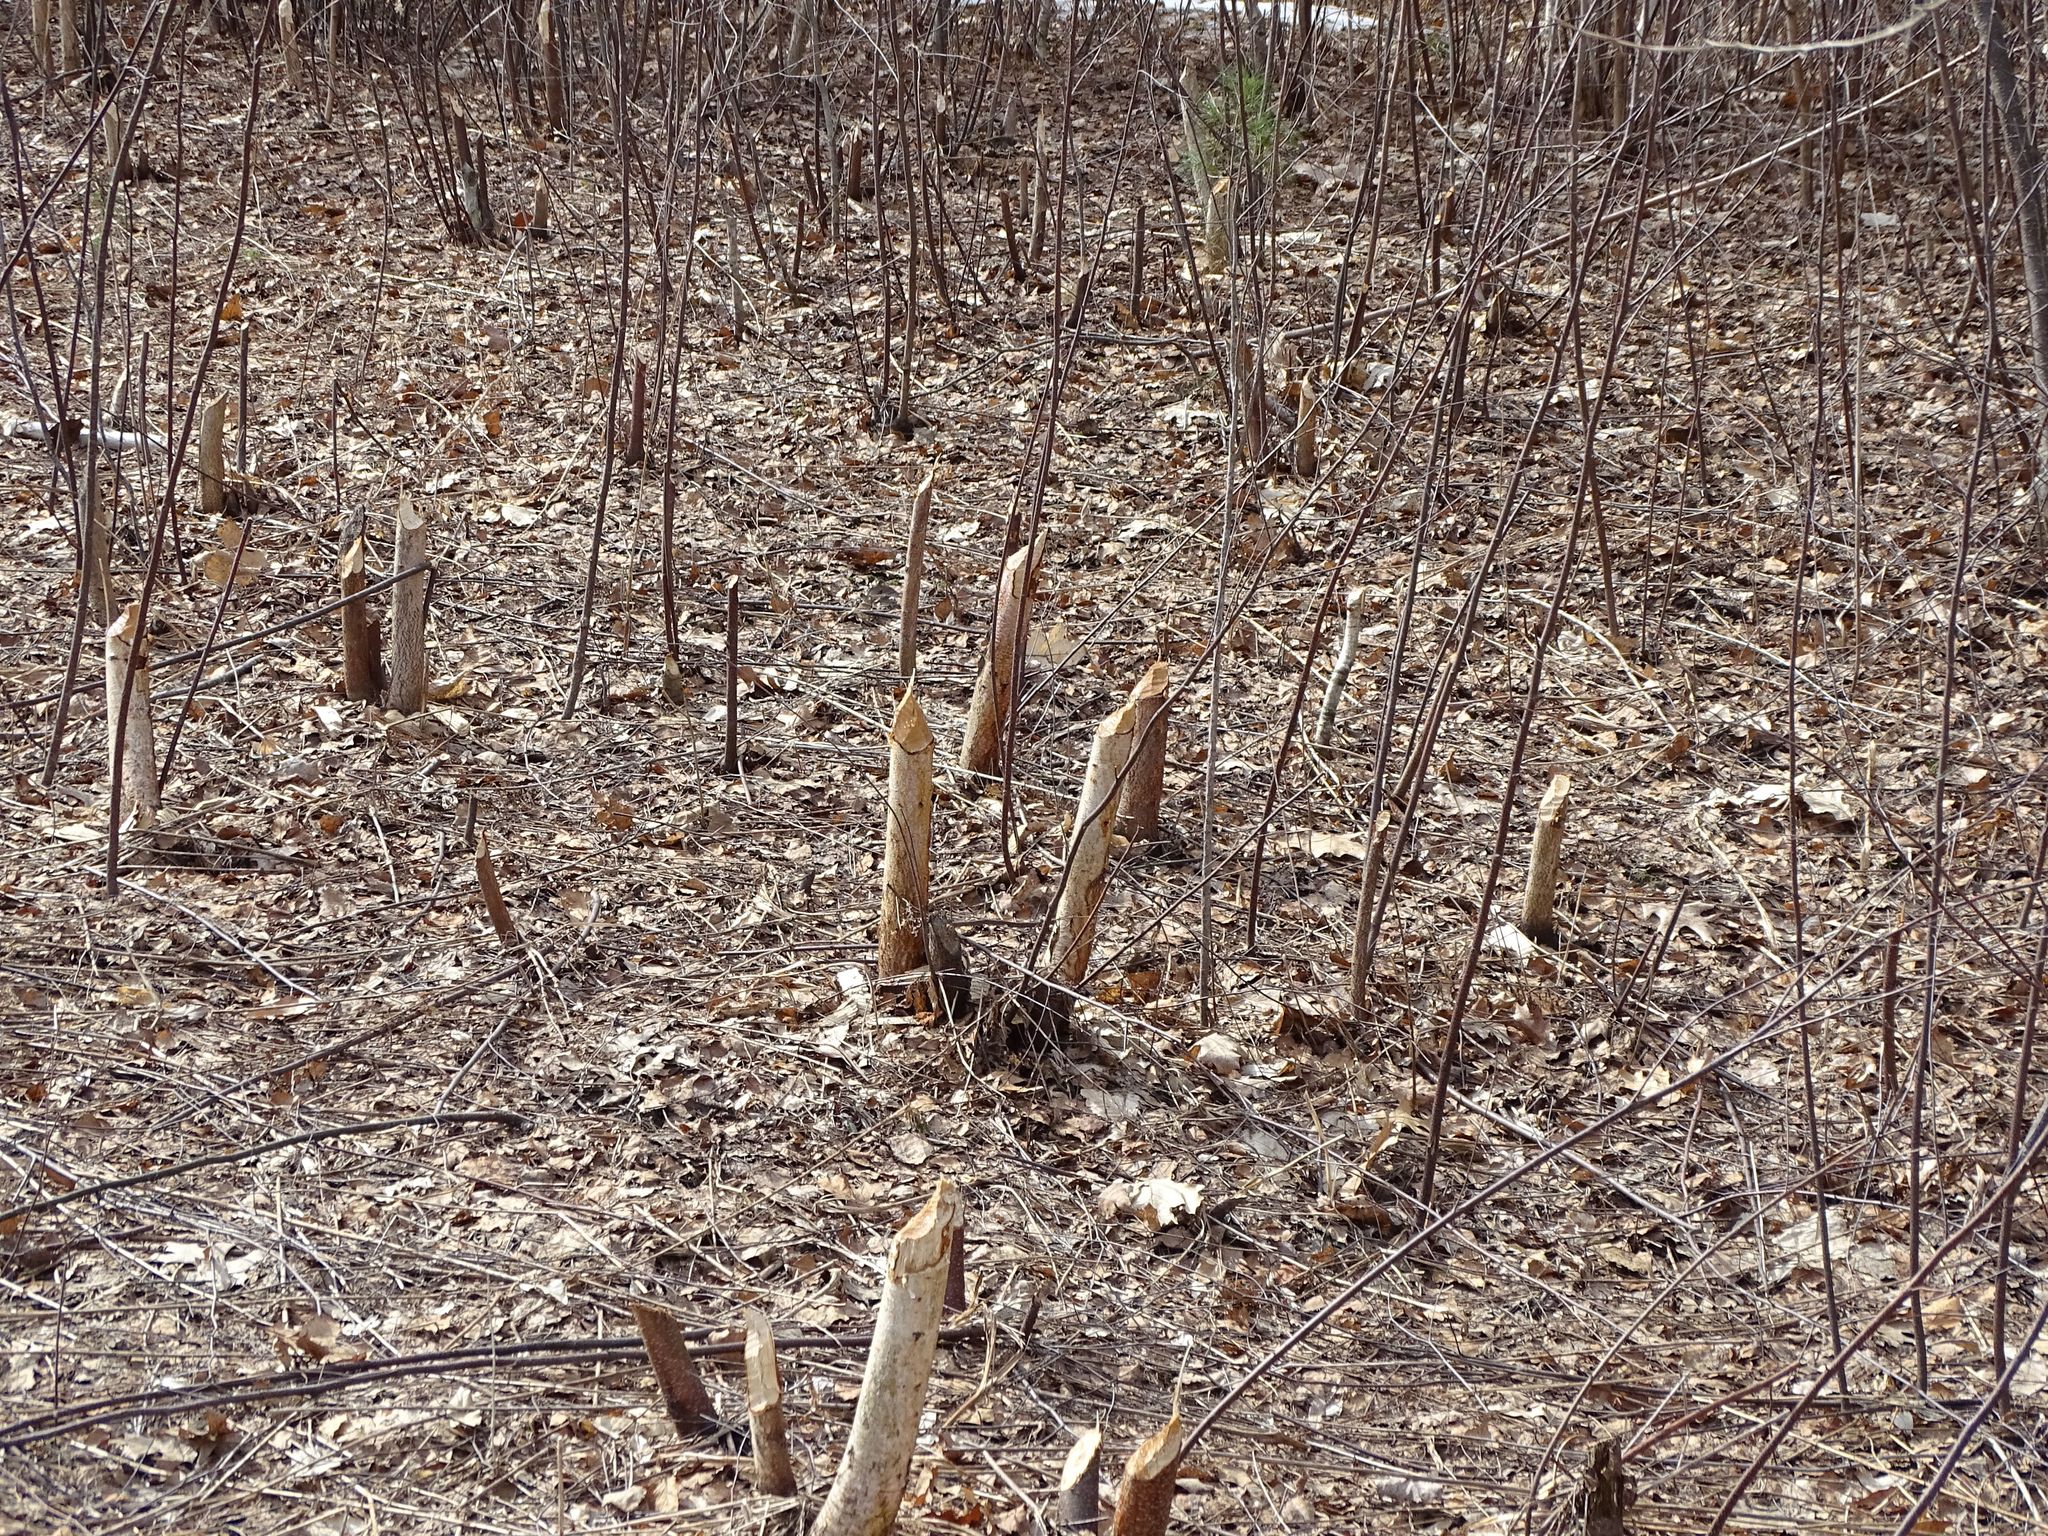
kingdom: Animalia
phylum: Chordata
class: Mammalia
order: Rodentia
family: Castoridae
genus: Castor
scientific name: Castor canadensis
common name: American beaver
